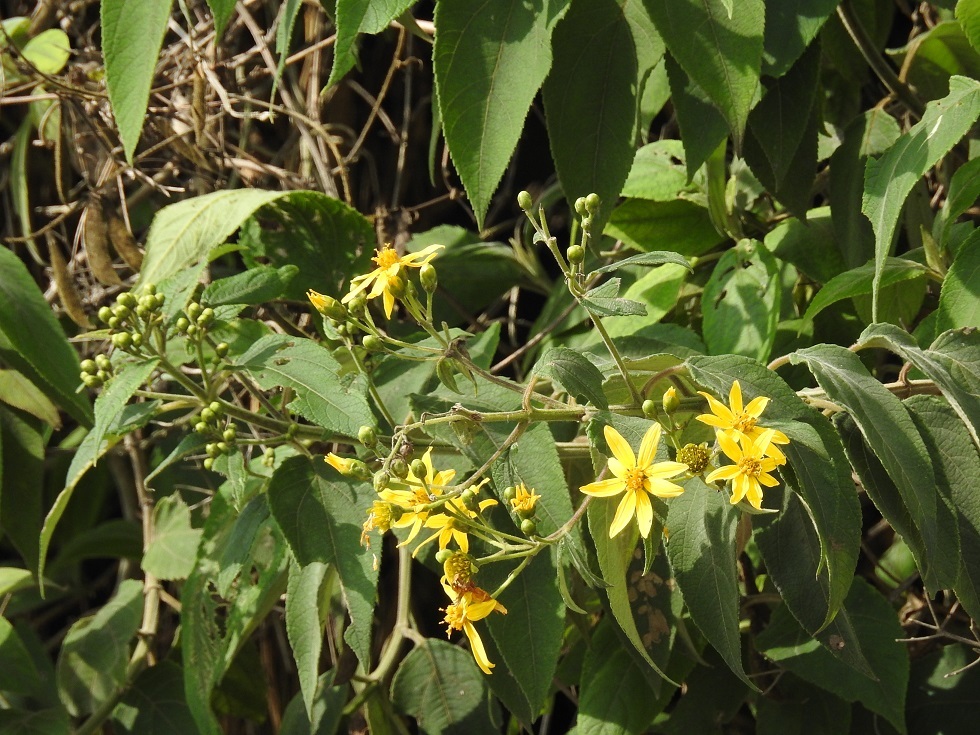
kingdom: Plantae
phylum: Tracheophyta
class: Magnoliopsida
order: Asterales
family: Asteraceae
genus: Perymenium
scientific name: Perymenium grande
